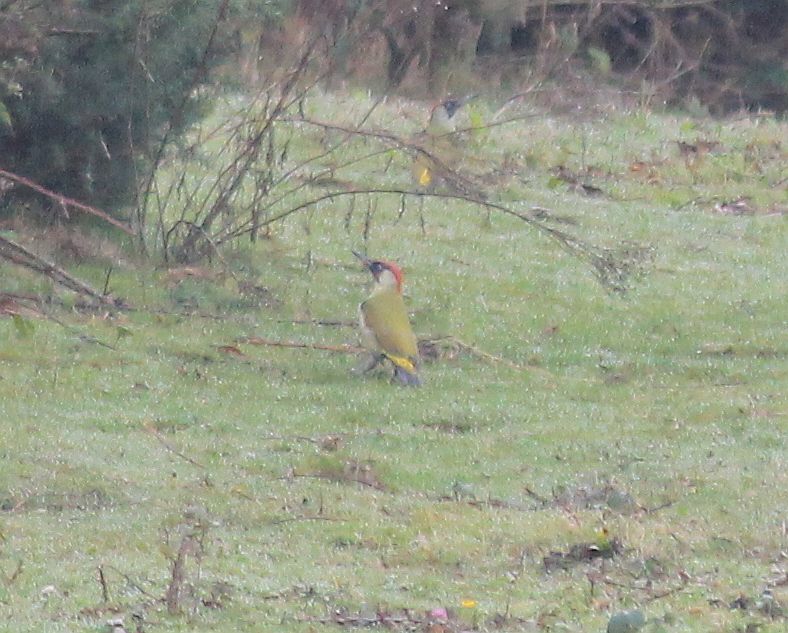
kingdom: Animalia
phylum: Chordata
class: Aves
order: Piciformes
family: Picidae
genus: Picus
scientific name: Picus viridis
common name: European green woodpecker
